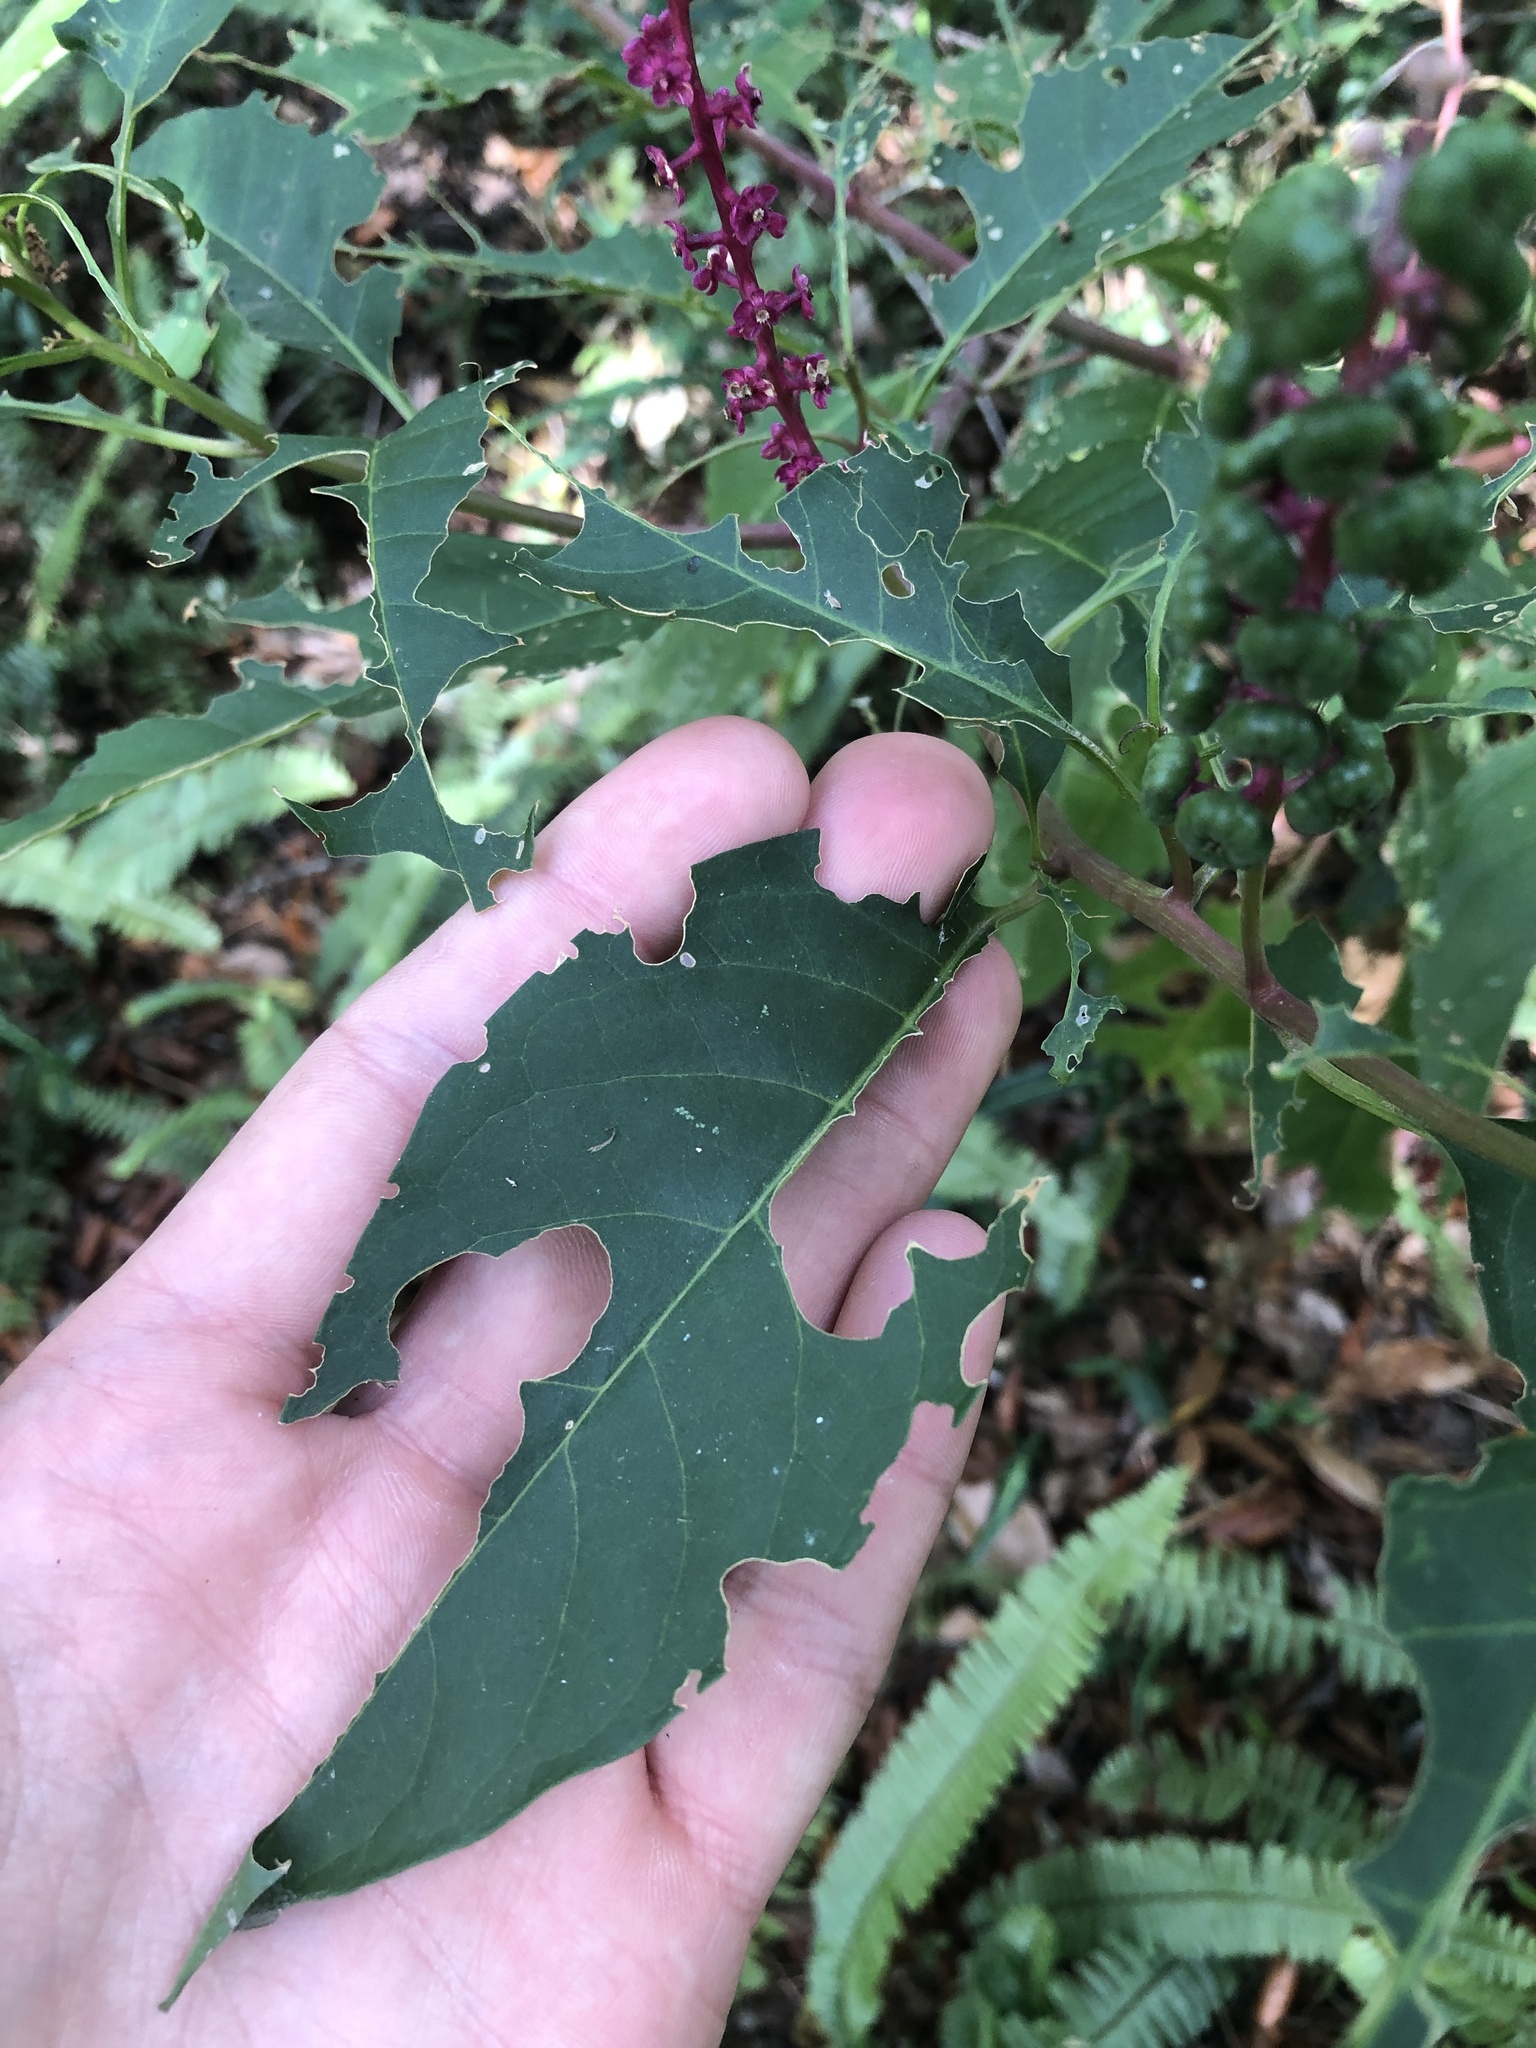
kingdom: Plantae
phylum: Tracheophyta
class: Magnoliopsida
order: Caryophyllales
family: Phytolaccaceae
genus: Phytolacca
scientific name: Phytolacca americana
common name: American pokeweed
